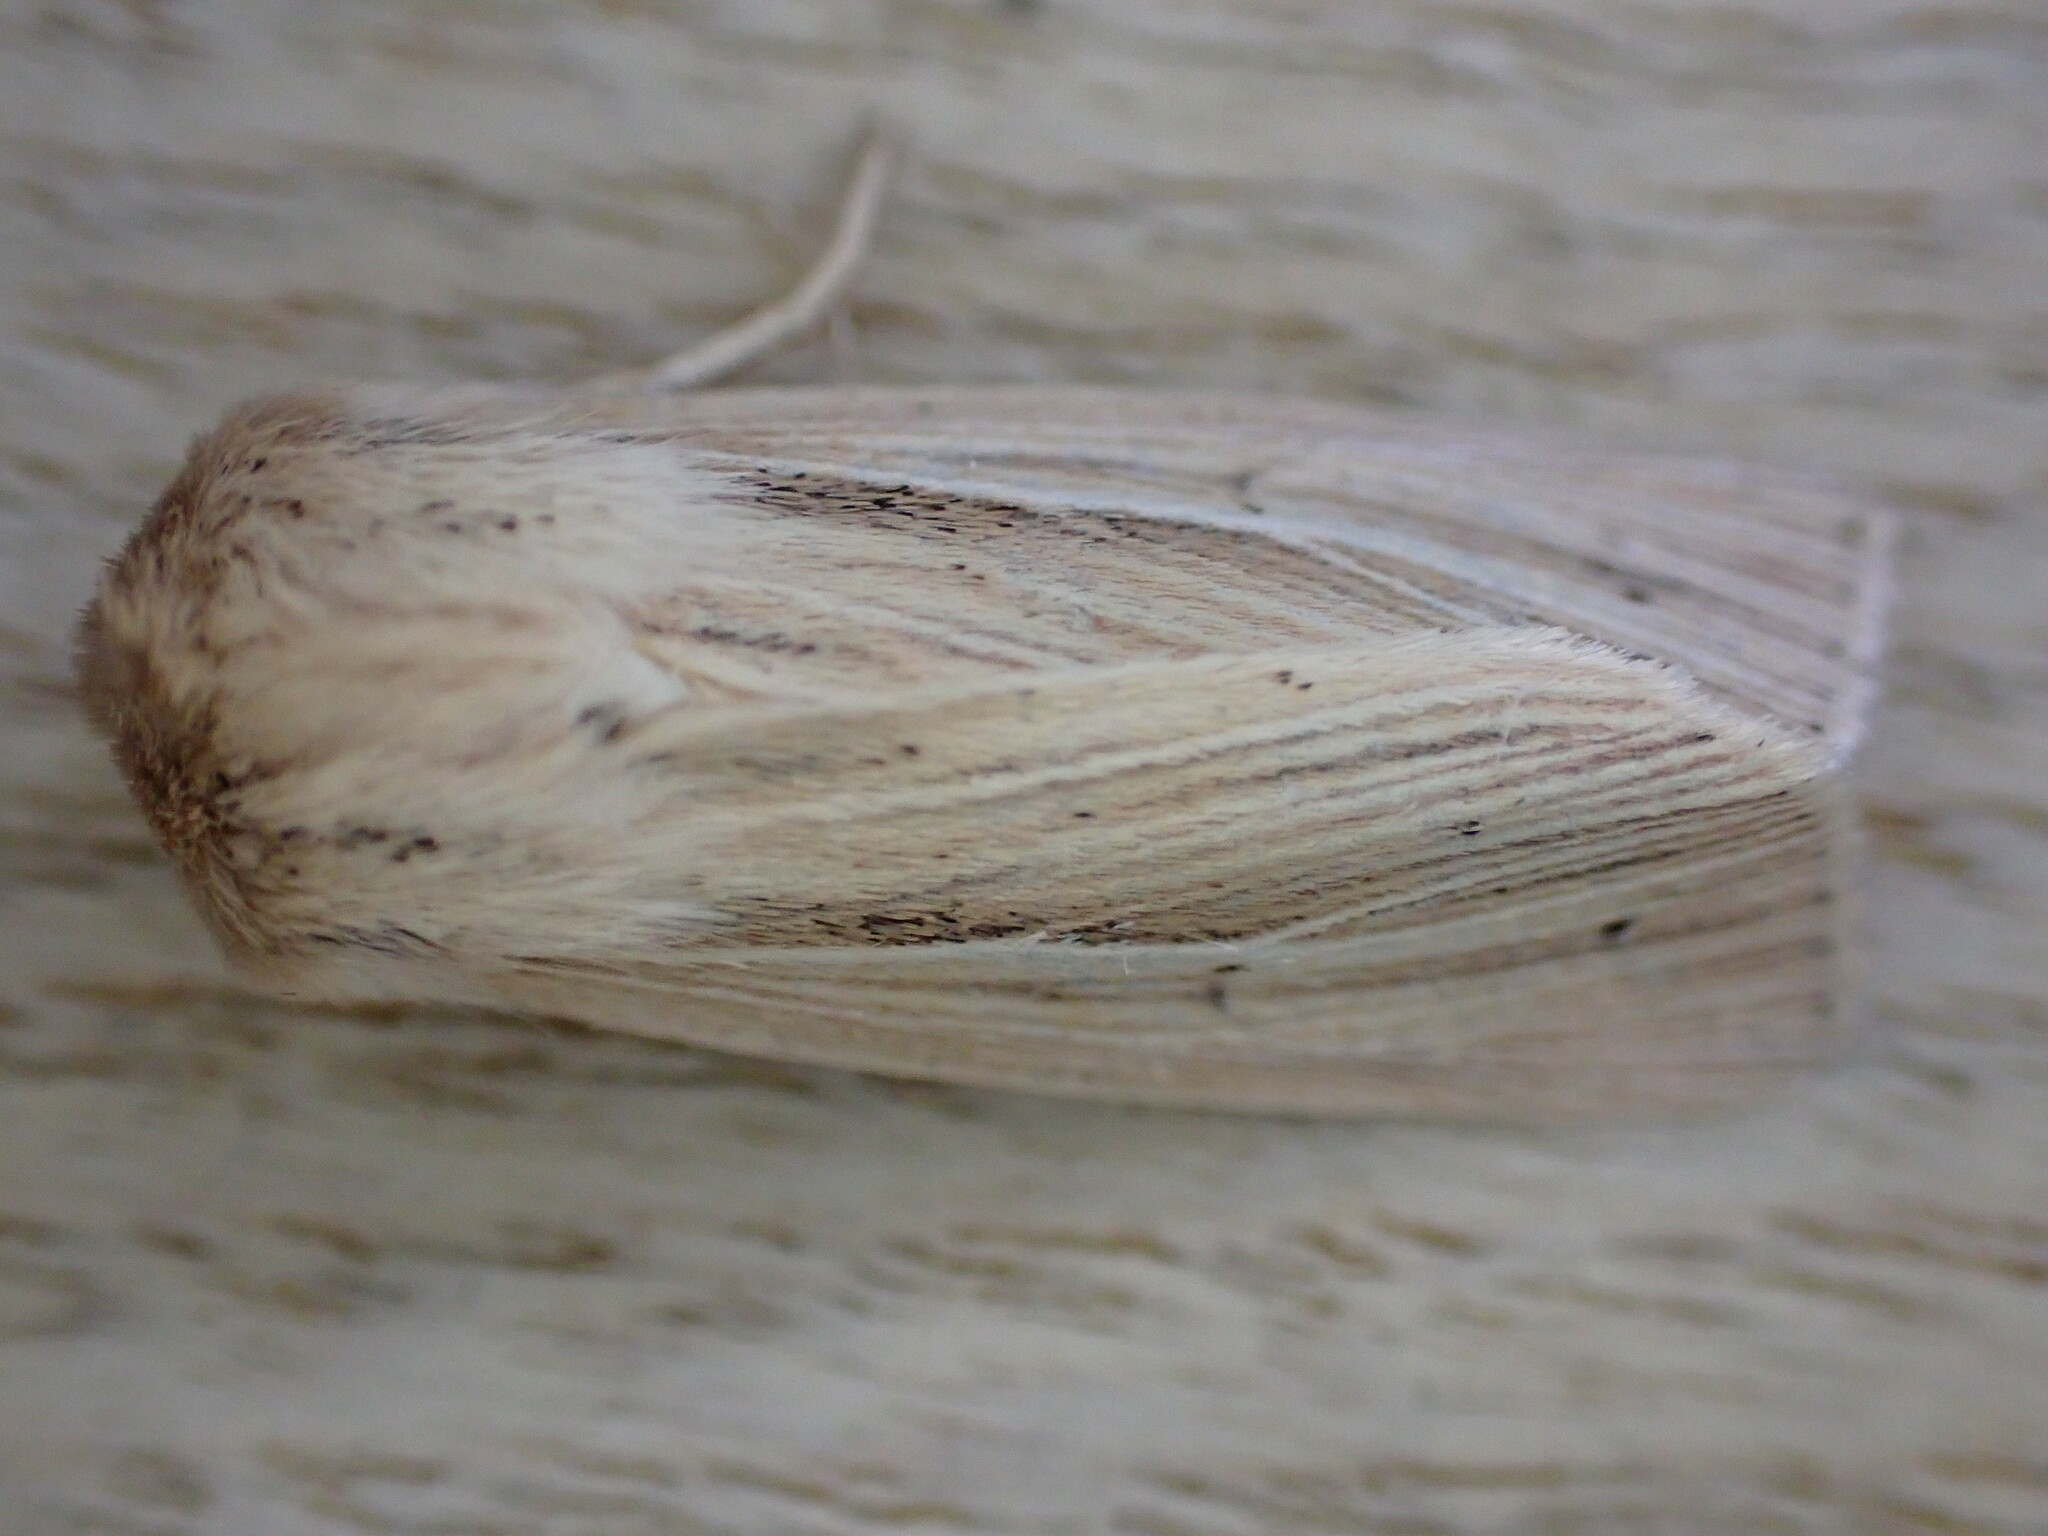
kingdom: Animalia
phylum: Arthropoda
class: Insecta
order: Lepidoptera
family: Noctuidae
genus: Mythimna
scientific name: Mythimna impura
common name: Smoky wainscot
